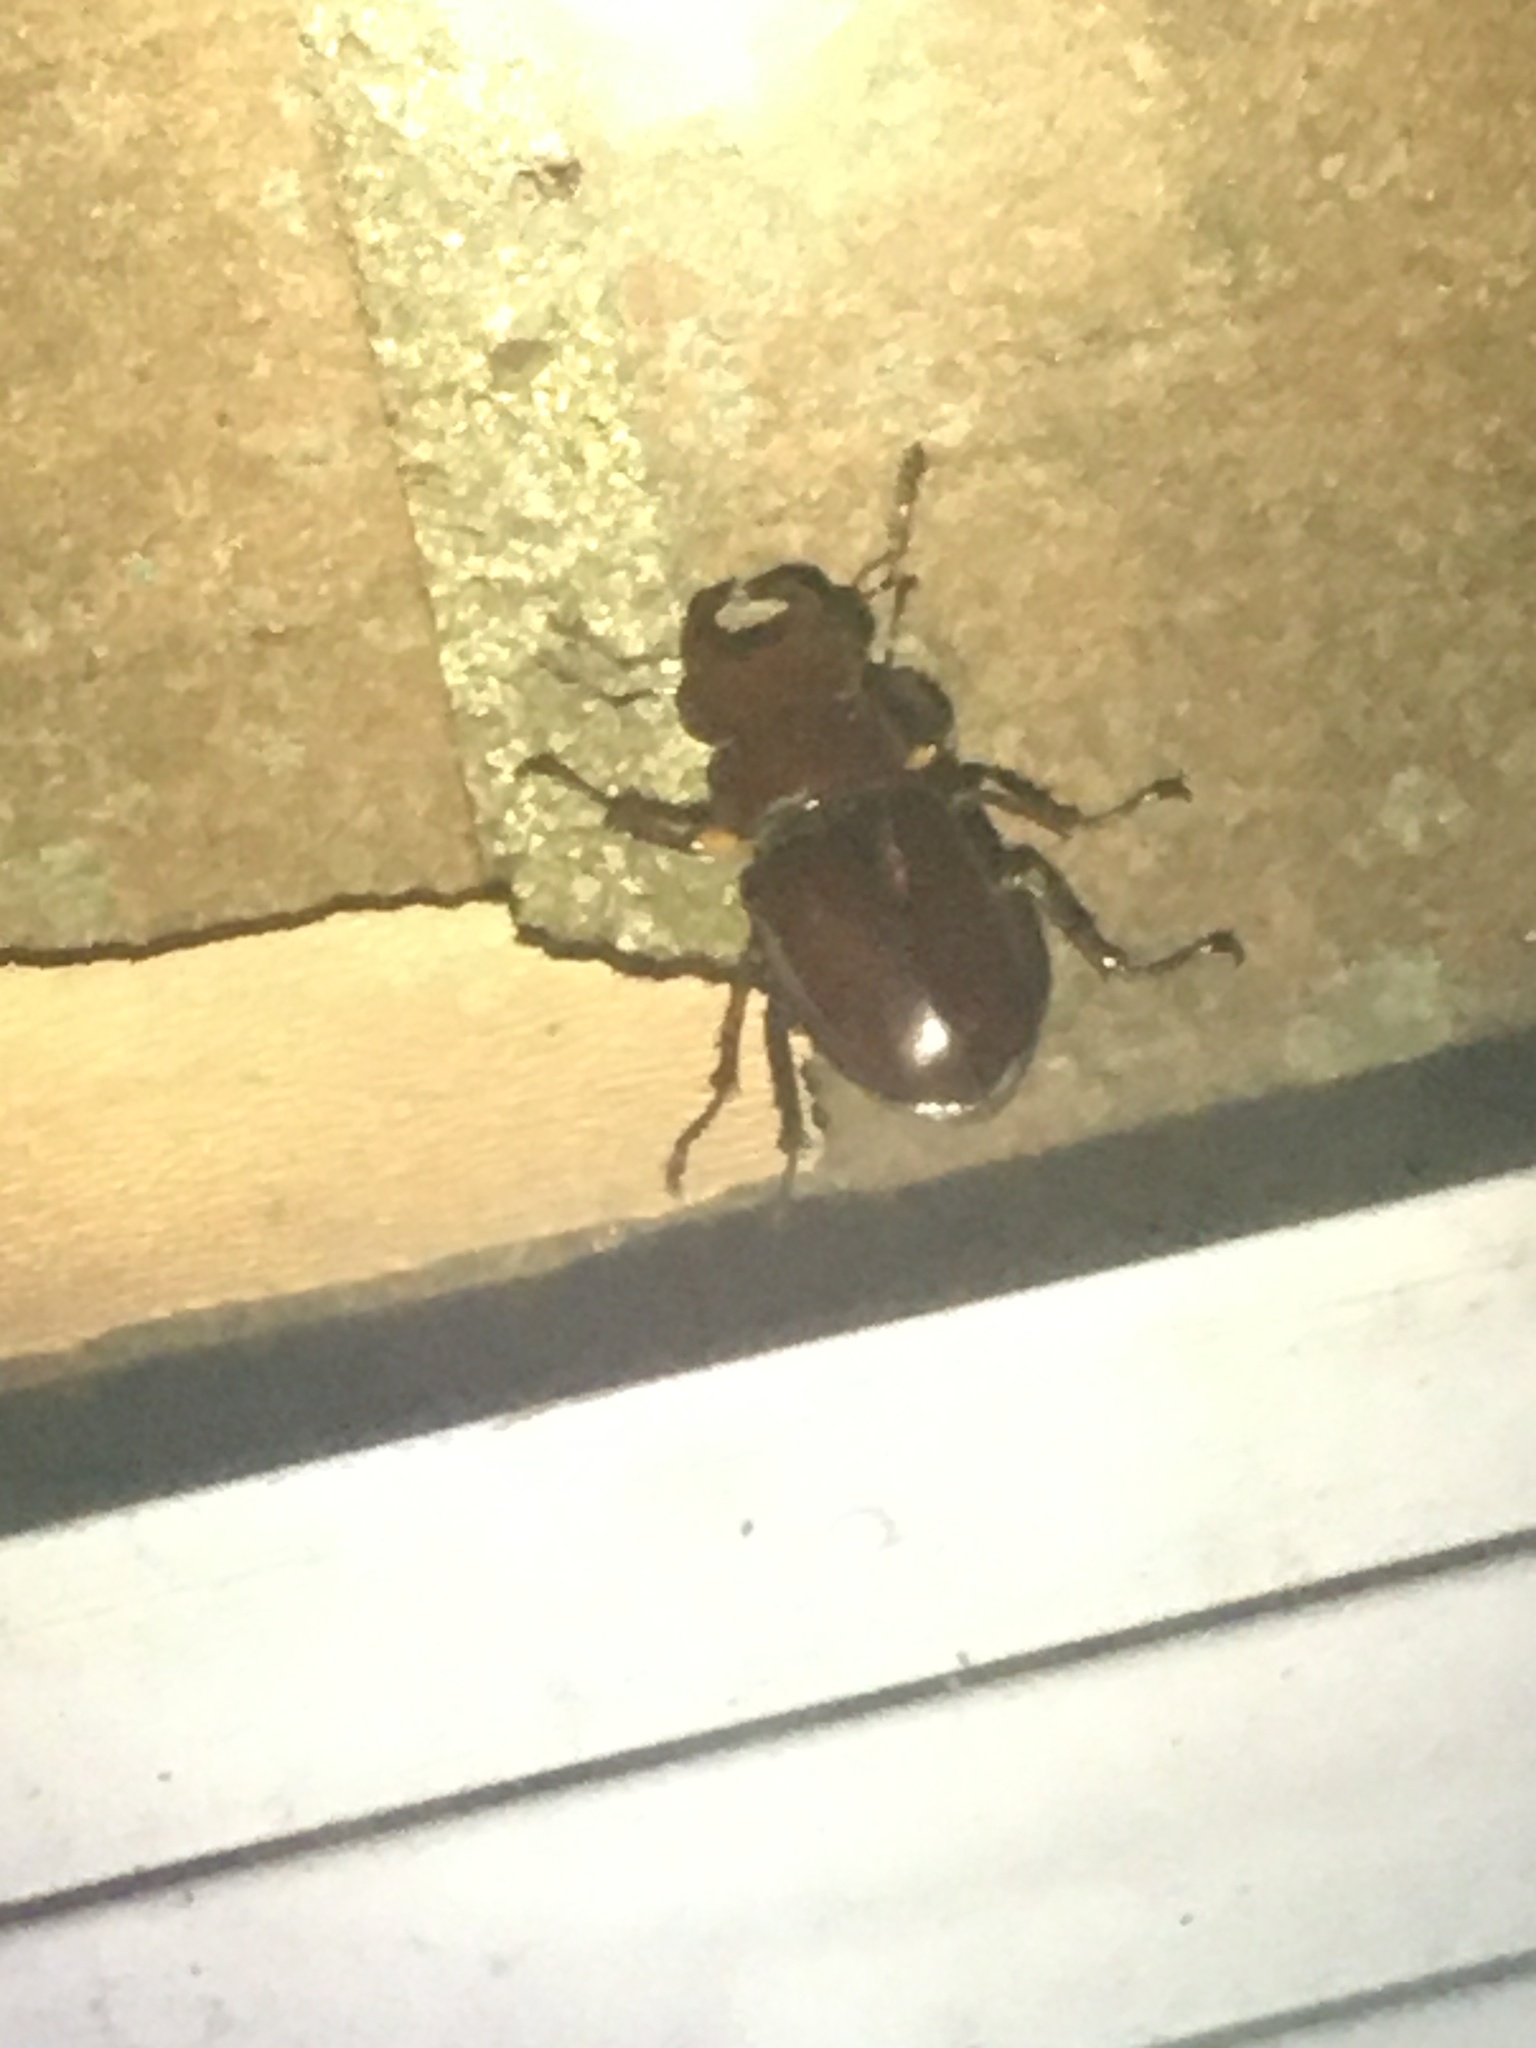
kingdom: Animalia
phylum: Arthropoda
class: Insecta
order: Coleoptera
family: Lucanidae
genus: Lucanus
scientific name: Lucanus capreolus
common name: Stag beetle
